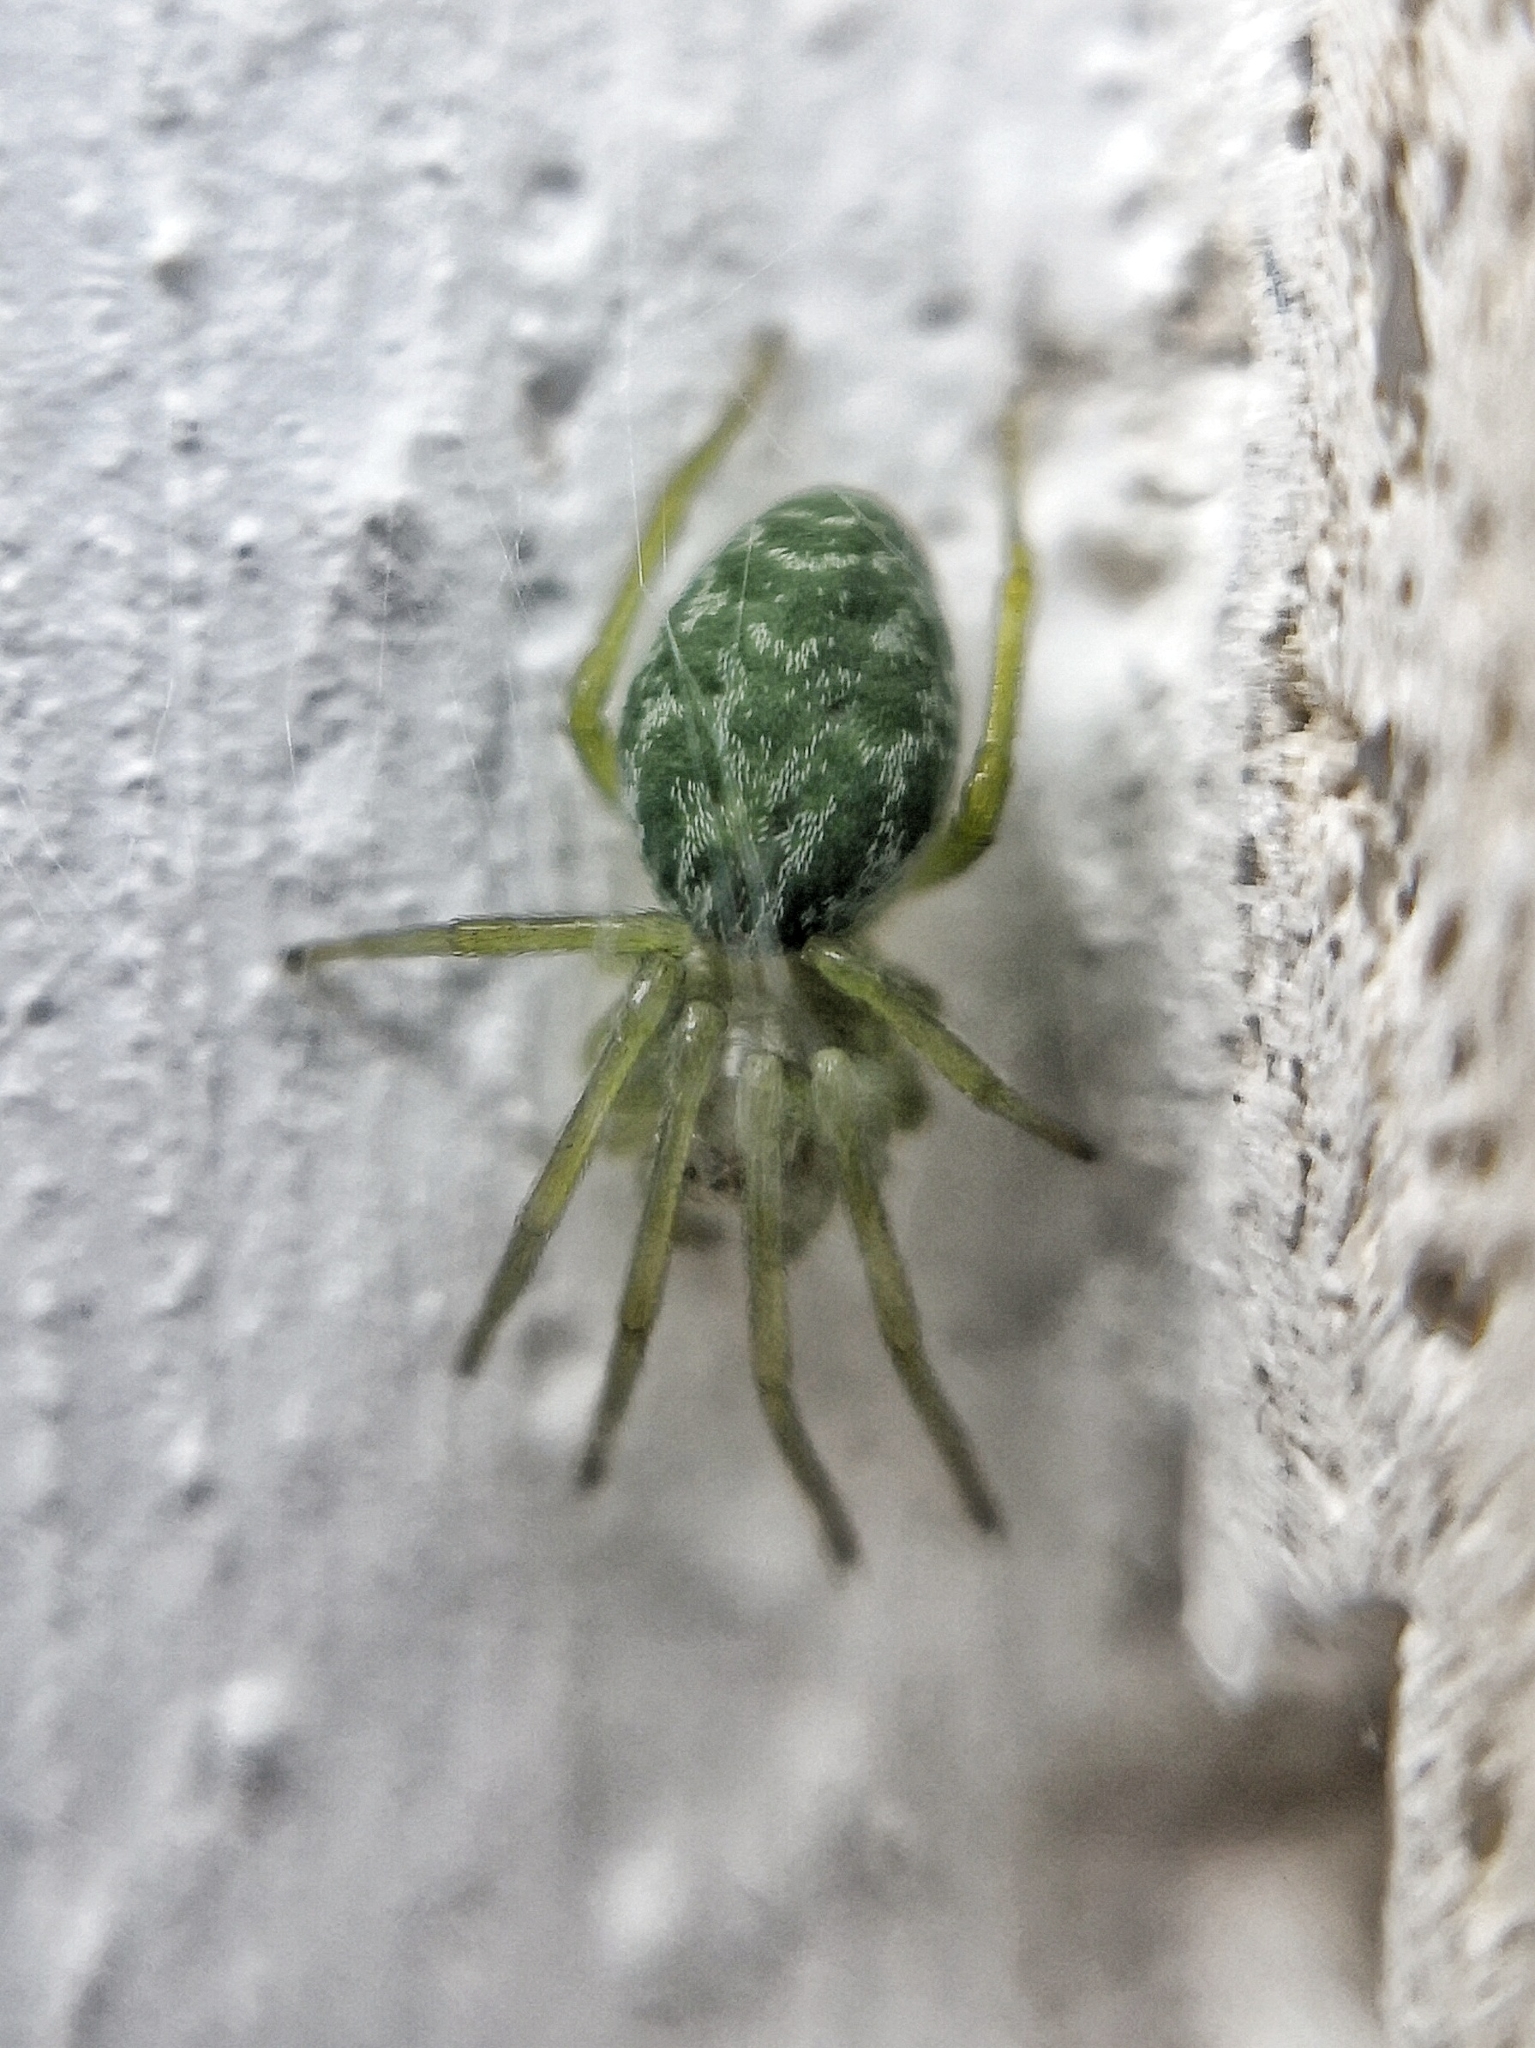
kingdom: Animalia
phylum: Arthropoda
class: Arachnida
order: Araneae
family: Dictynidae
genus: Nigma
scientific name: Nigma walckenaeri
